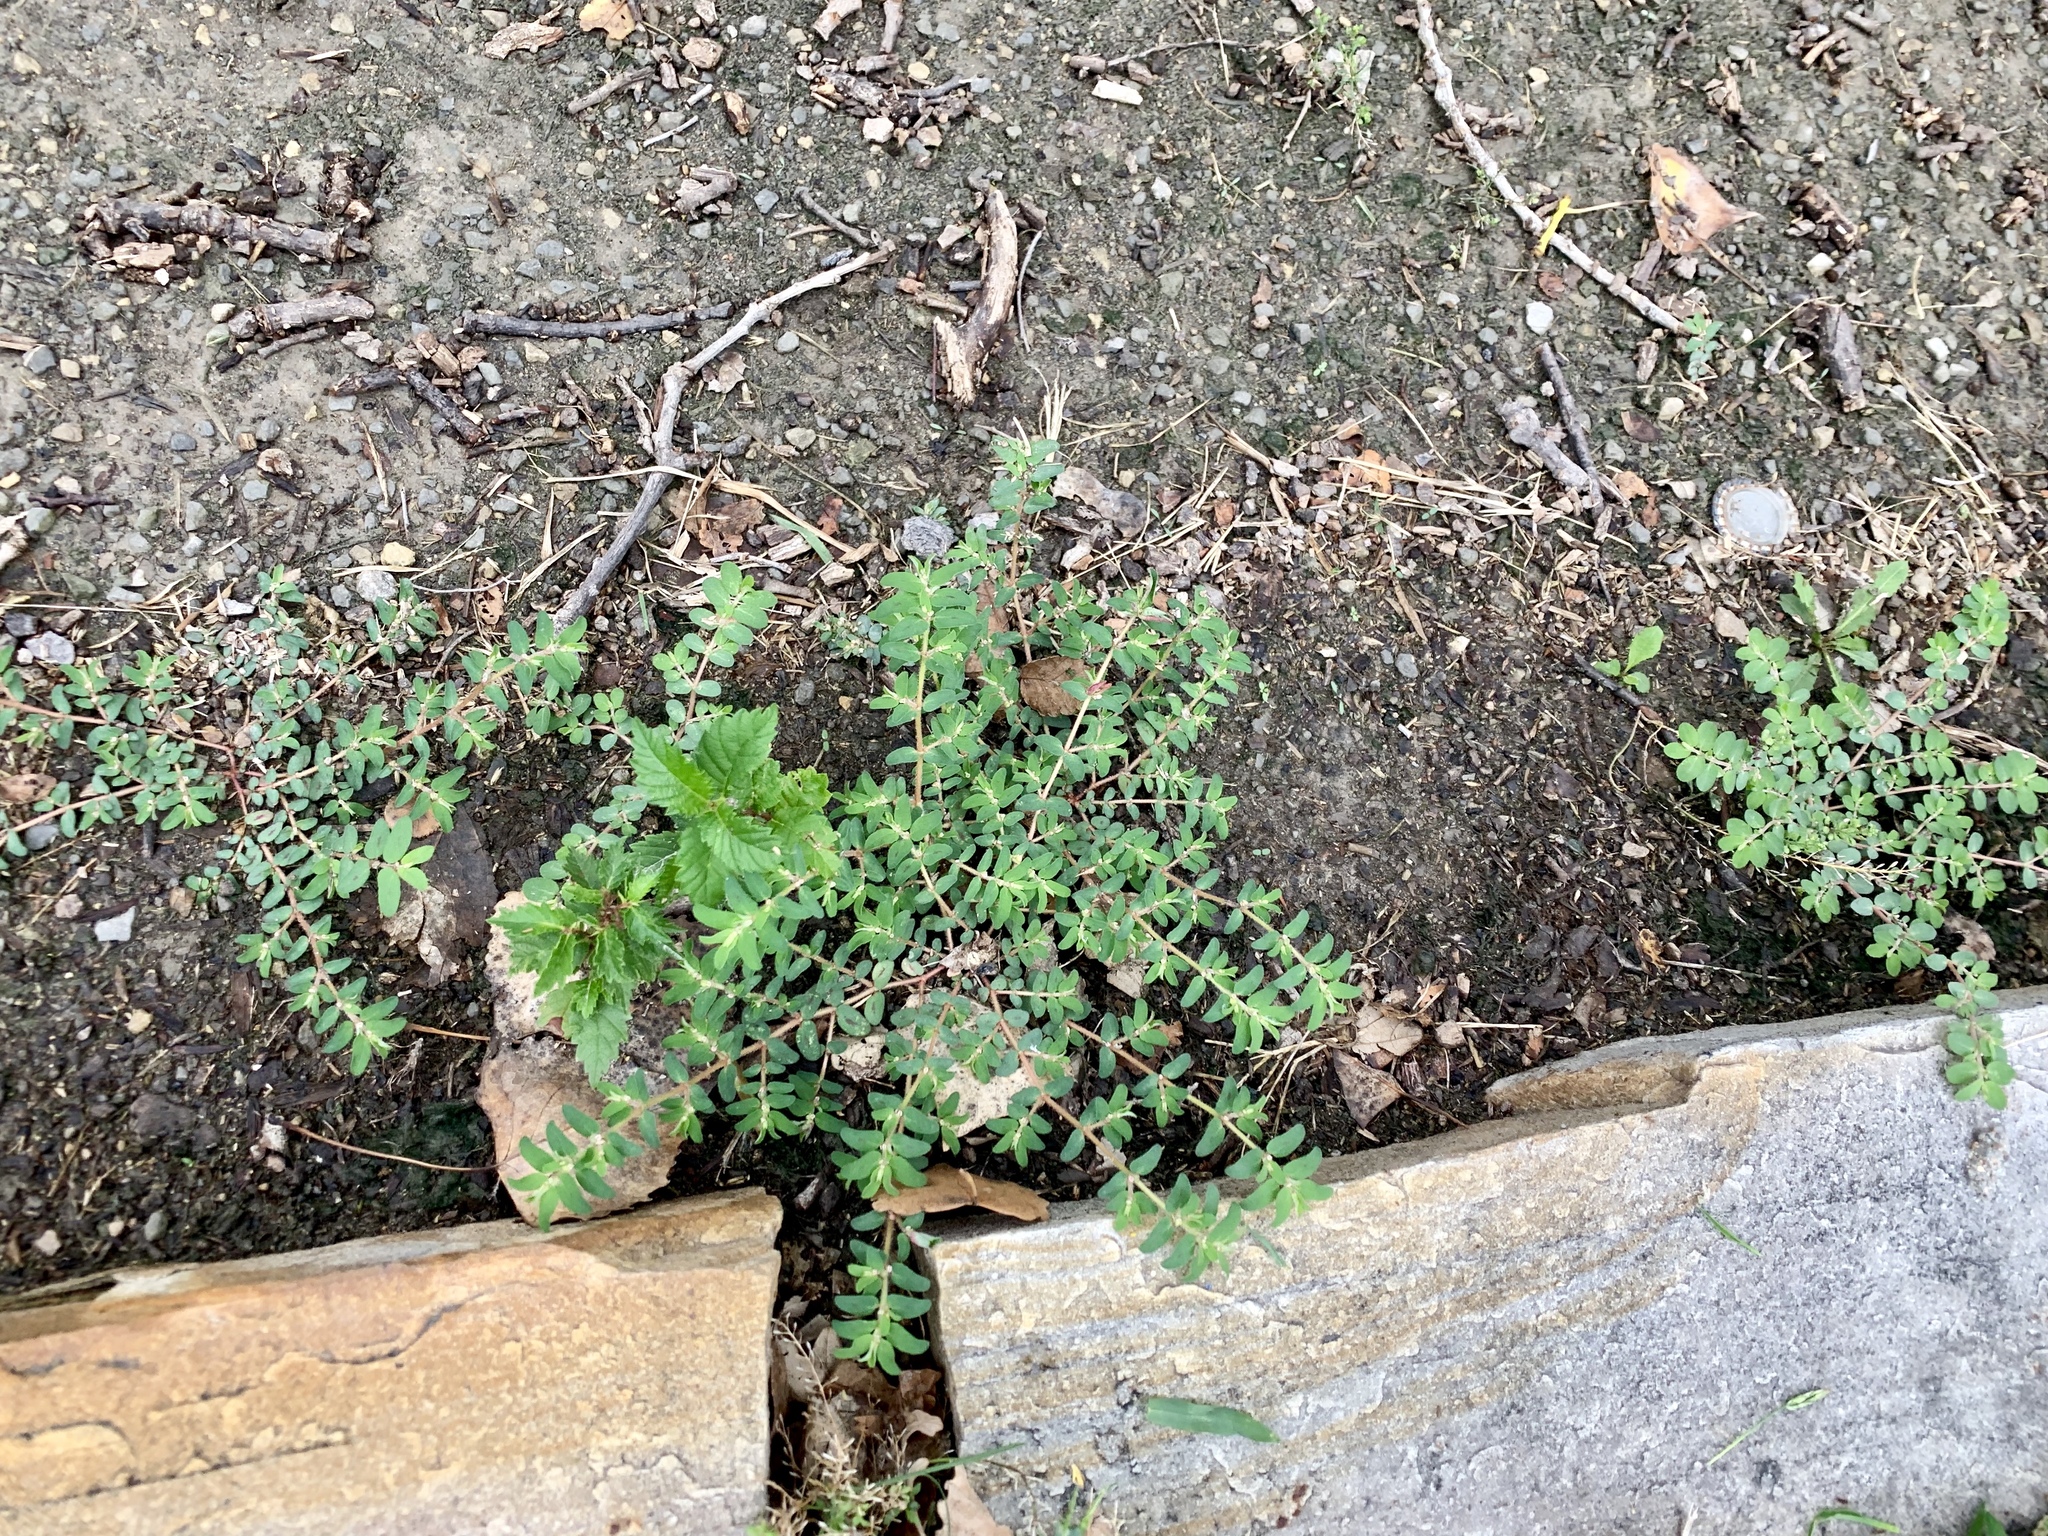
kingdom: Plantae
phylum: Tracheophyta
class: Magnoliopsida
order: Malpighiales
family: Euphorbiaceae
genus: Euphorbia
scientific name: Euphorbia maculata
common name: Spotted spurge
